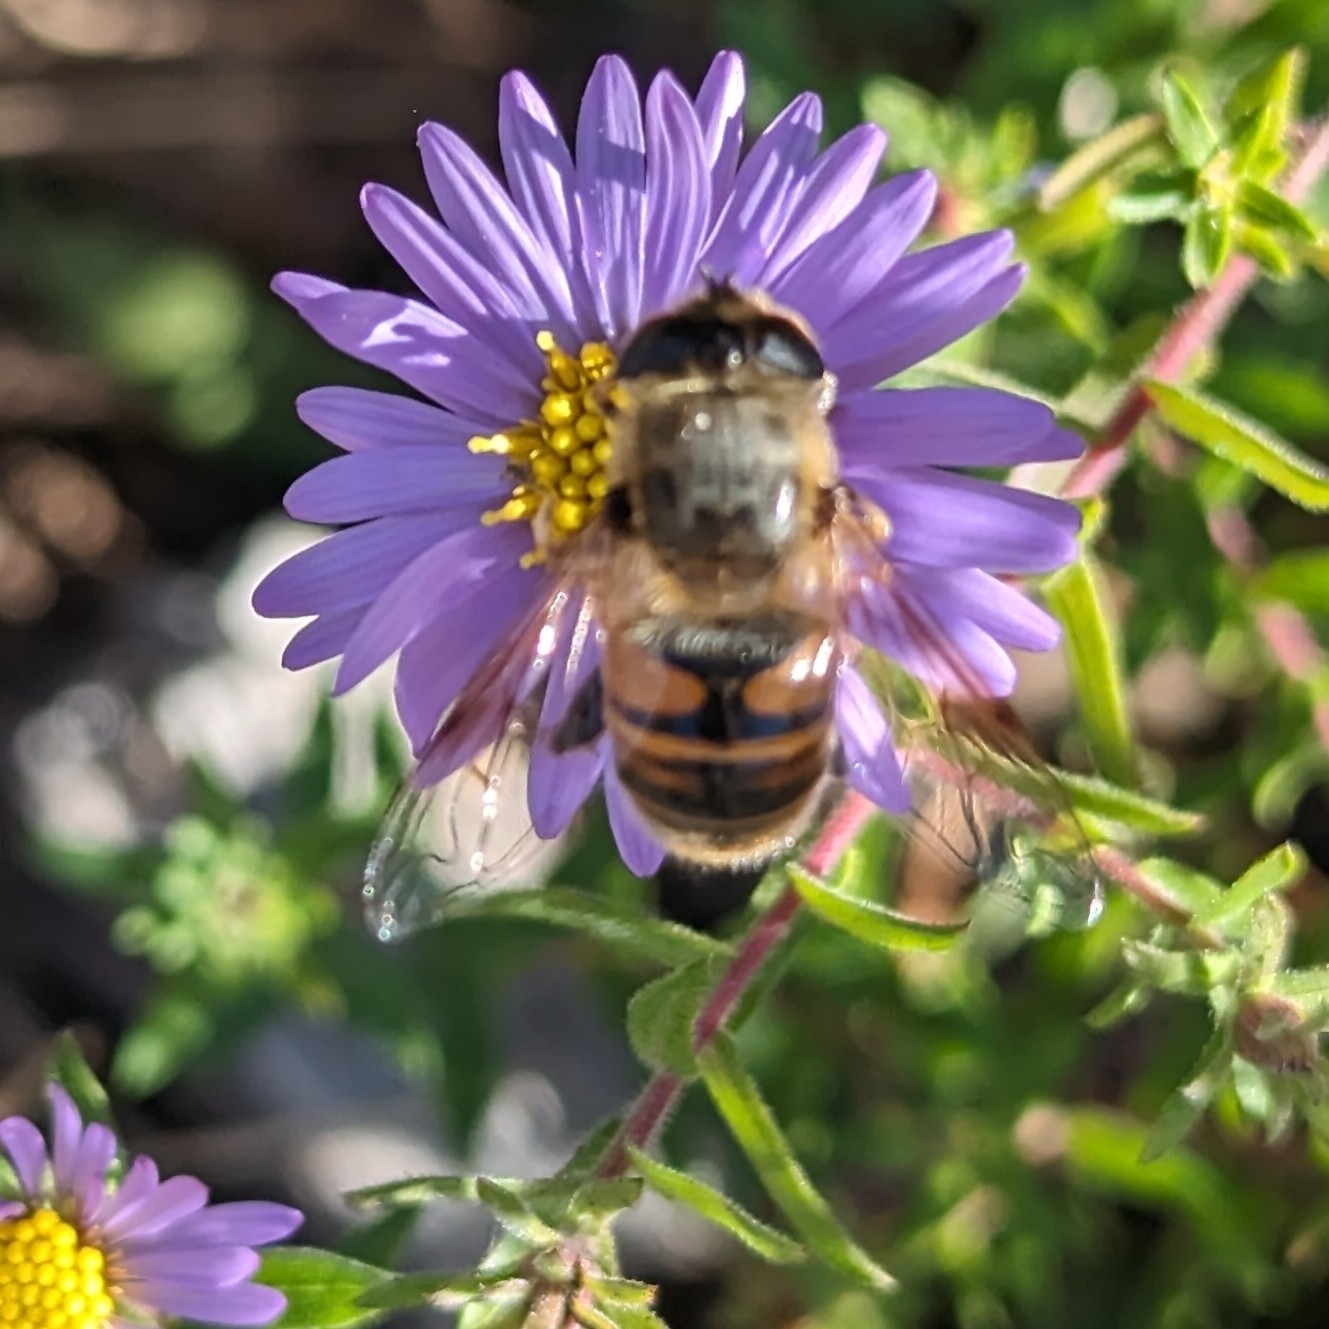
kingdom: Animalia
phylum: Arthropoda
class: Insecta
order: Diptera
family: Syrphidae
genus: Eristalis
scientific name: Eristalis tenax
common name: Drone fly
